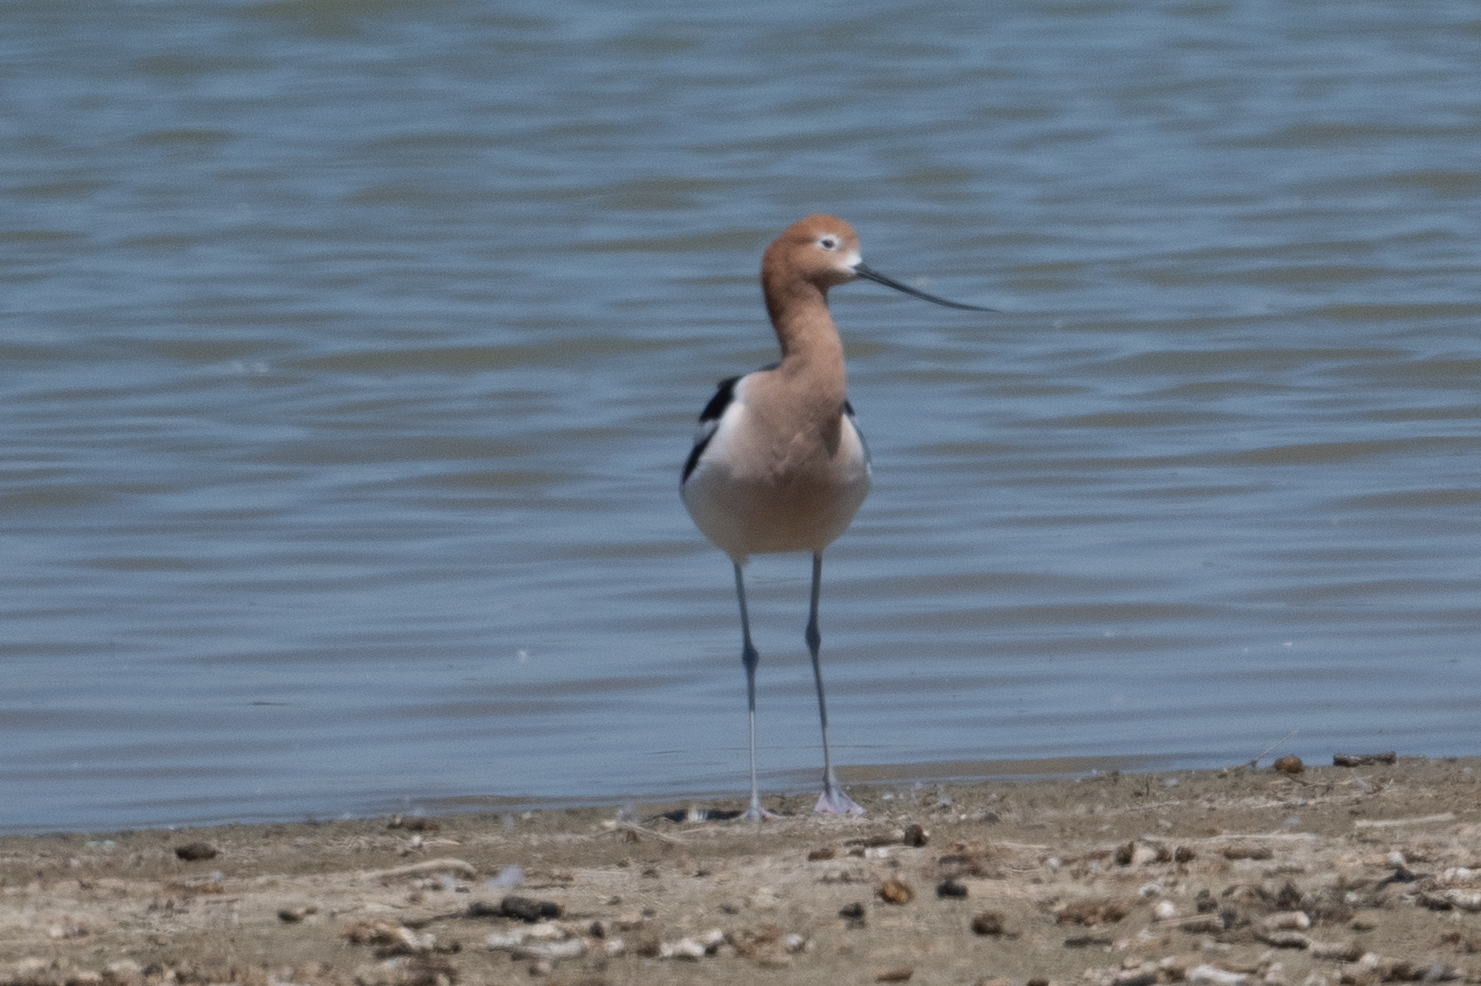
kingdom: Animalia
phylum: Chordata
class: Aves
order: Charadriiformes
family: Recurvirostridae
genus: Recurvirostra
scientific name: Recurvirostra americana
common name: American avocet
